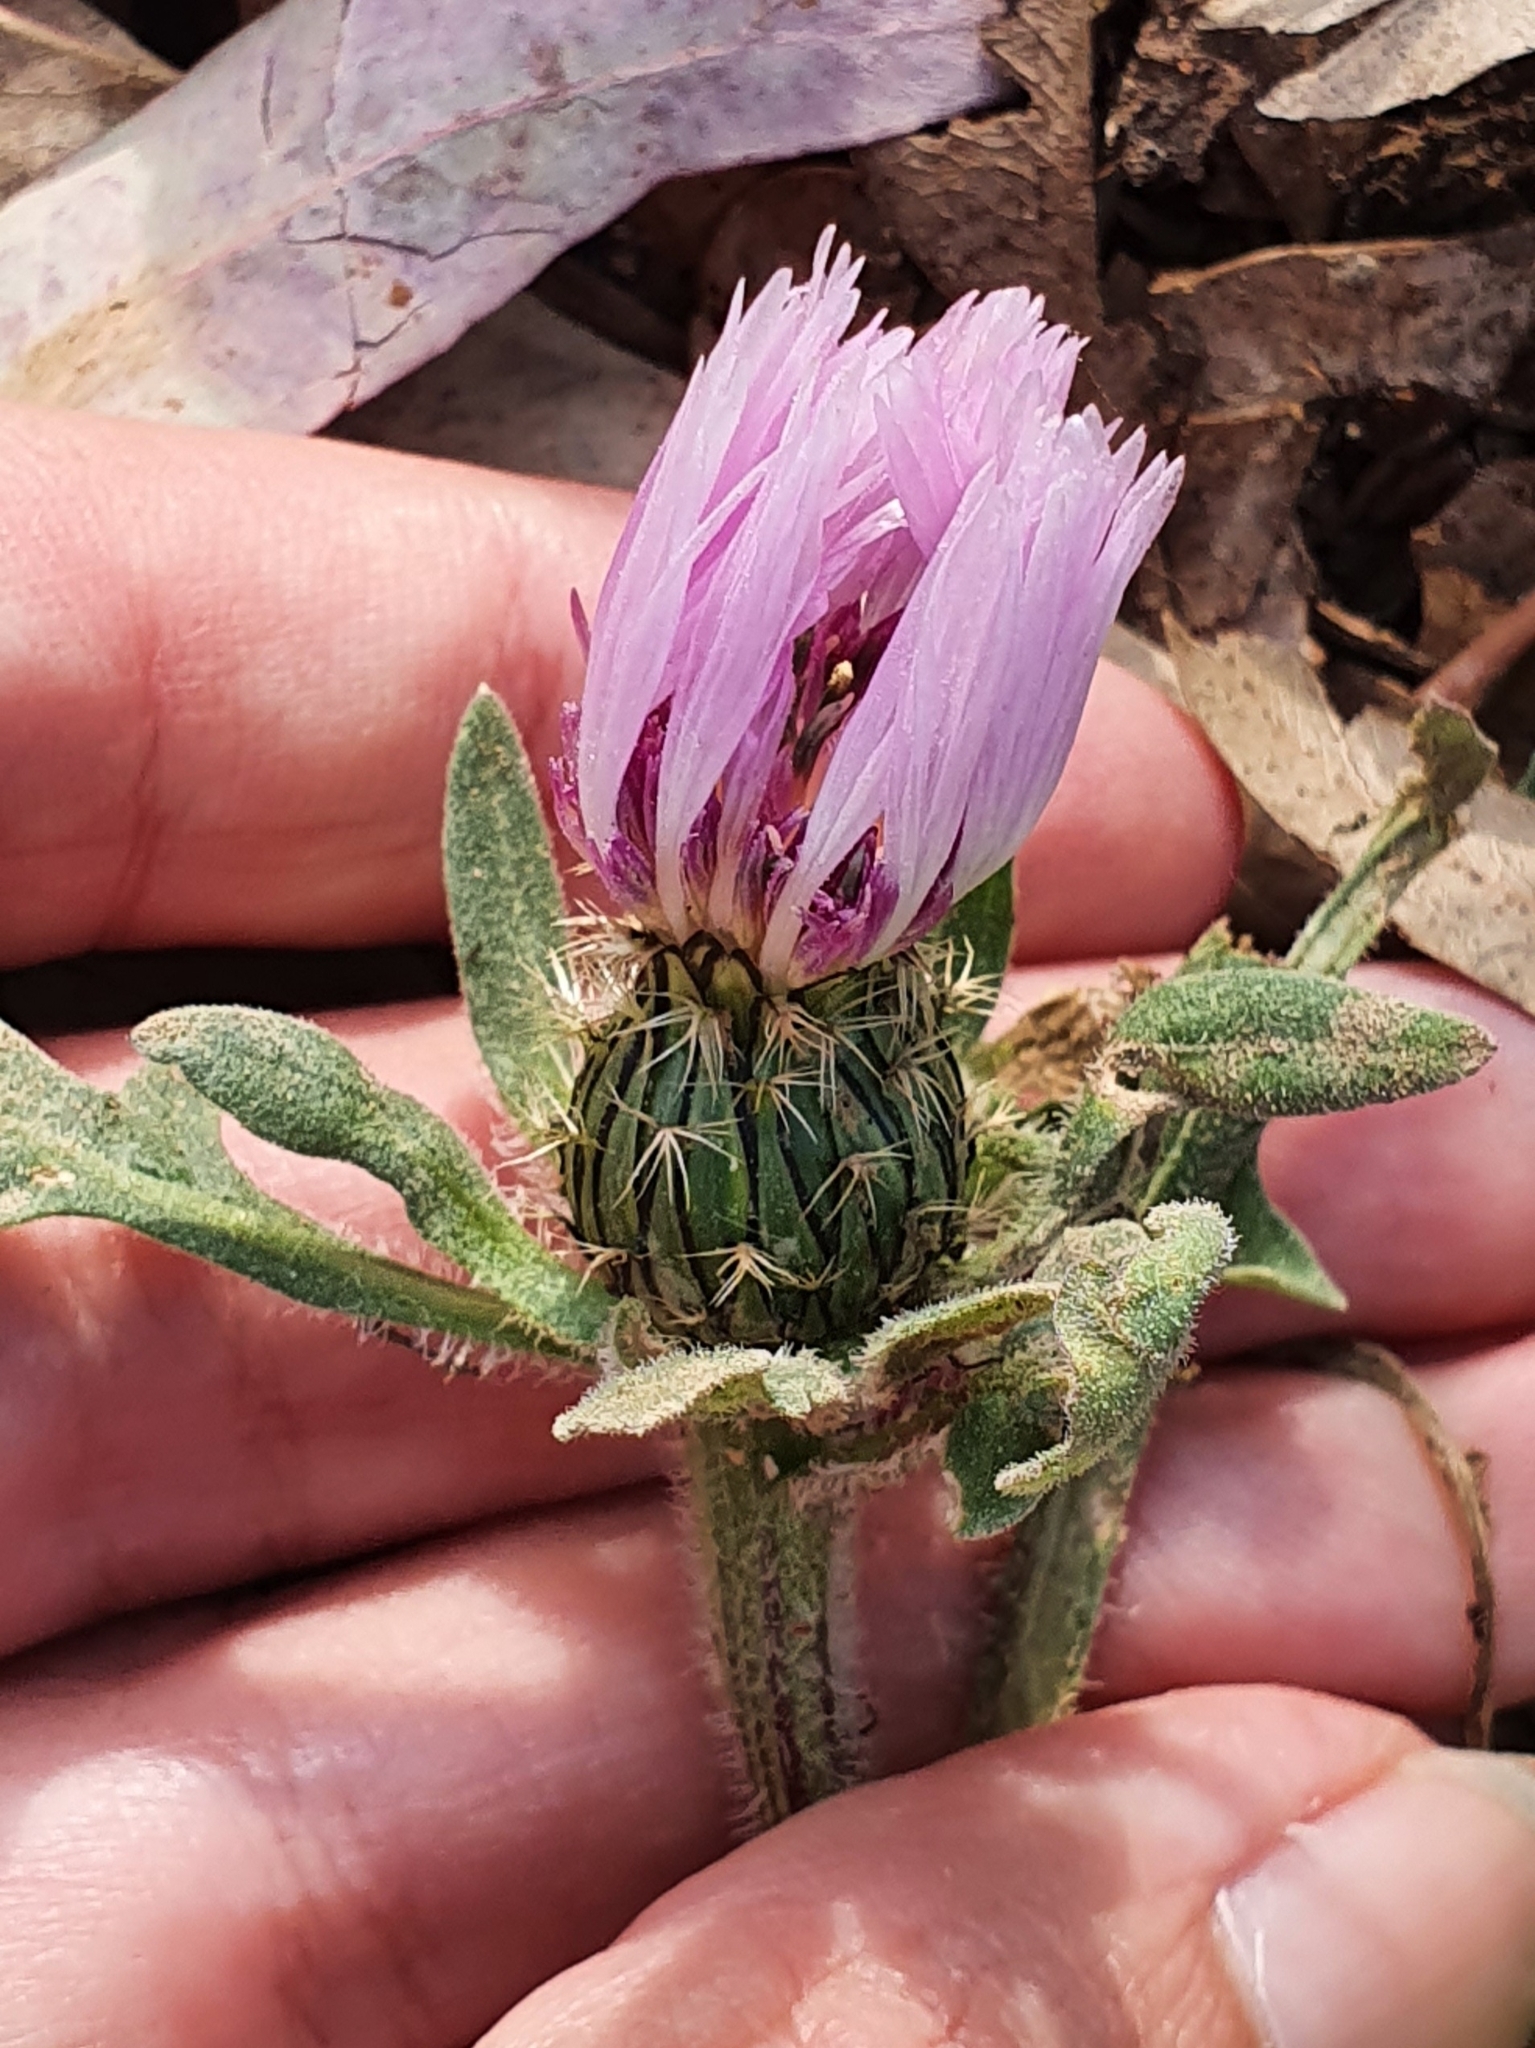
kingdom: Plantae
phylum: Tracheophyta
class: Magnoliopsida
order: Asterales
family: Asteraceae
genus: Centaurea
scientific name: Centaurea pullata
